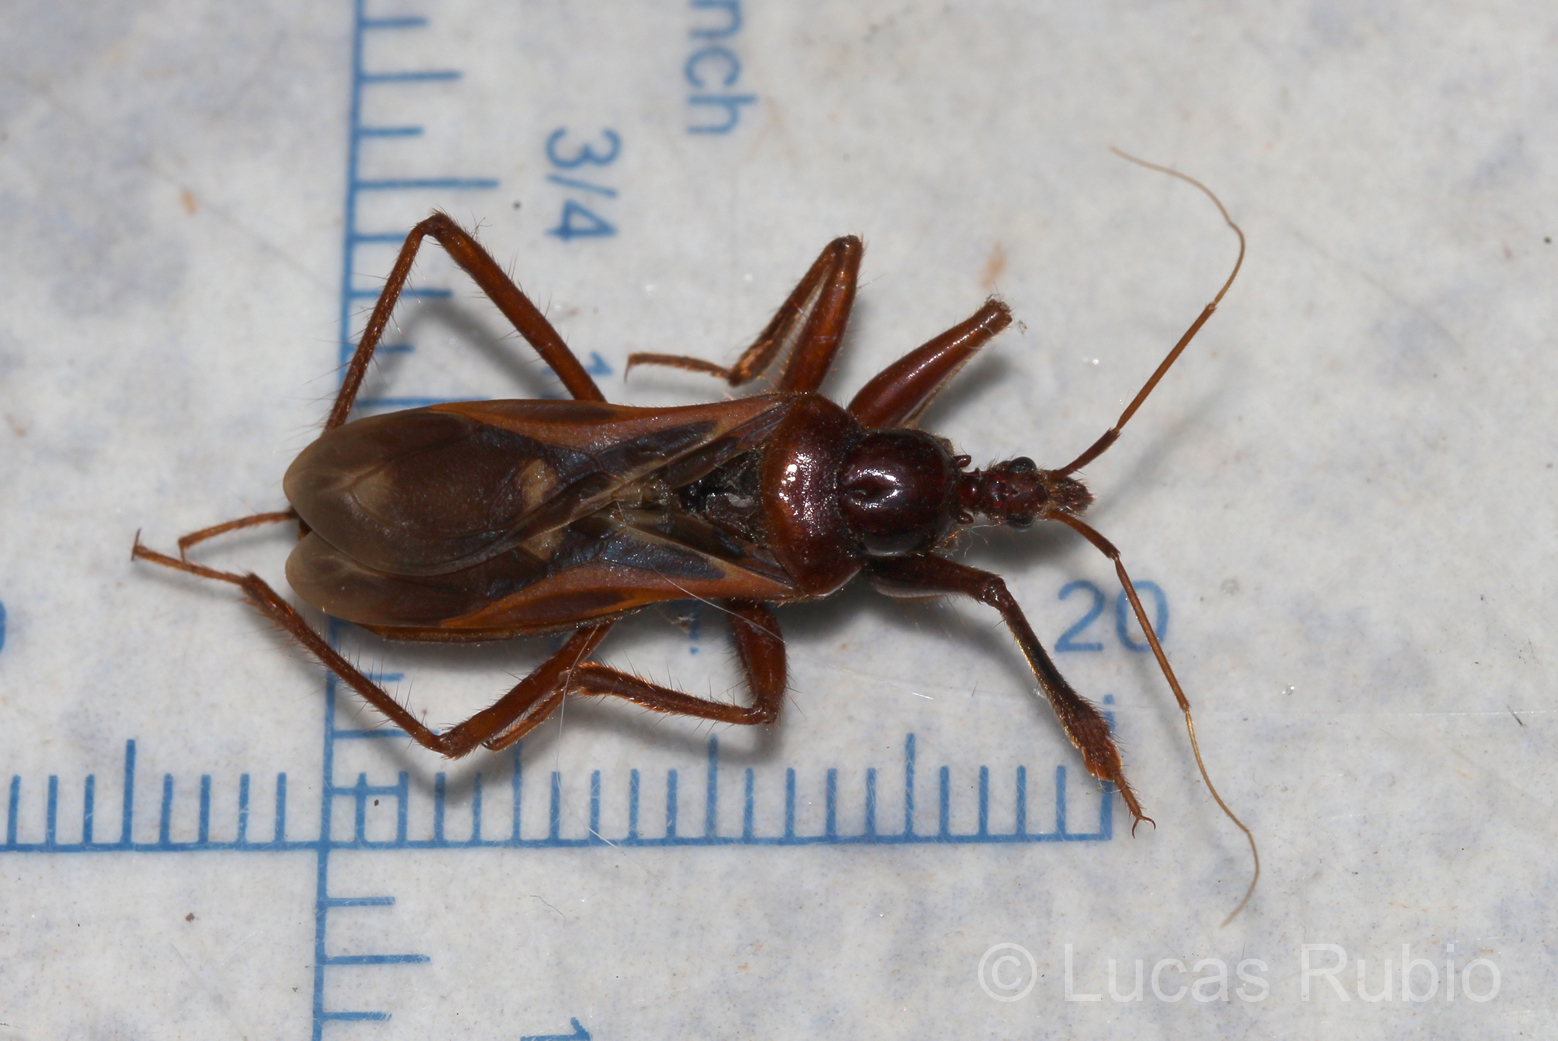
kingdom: Animalia
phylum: Arthropoda
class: Insecta
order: Hemiptera
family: Reduviidae
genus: Eidmannia
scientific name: Eidmannia guyanensis
